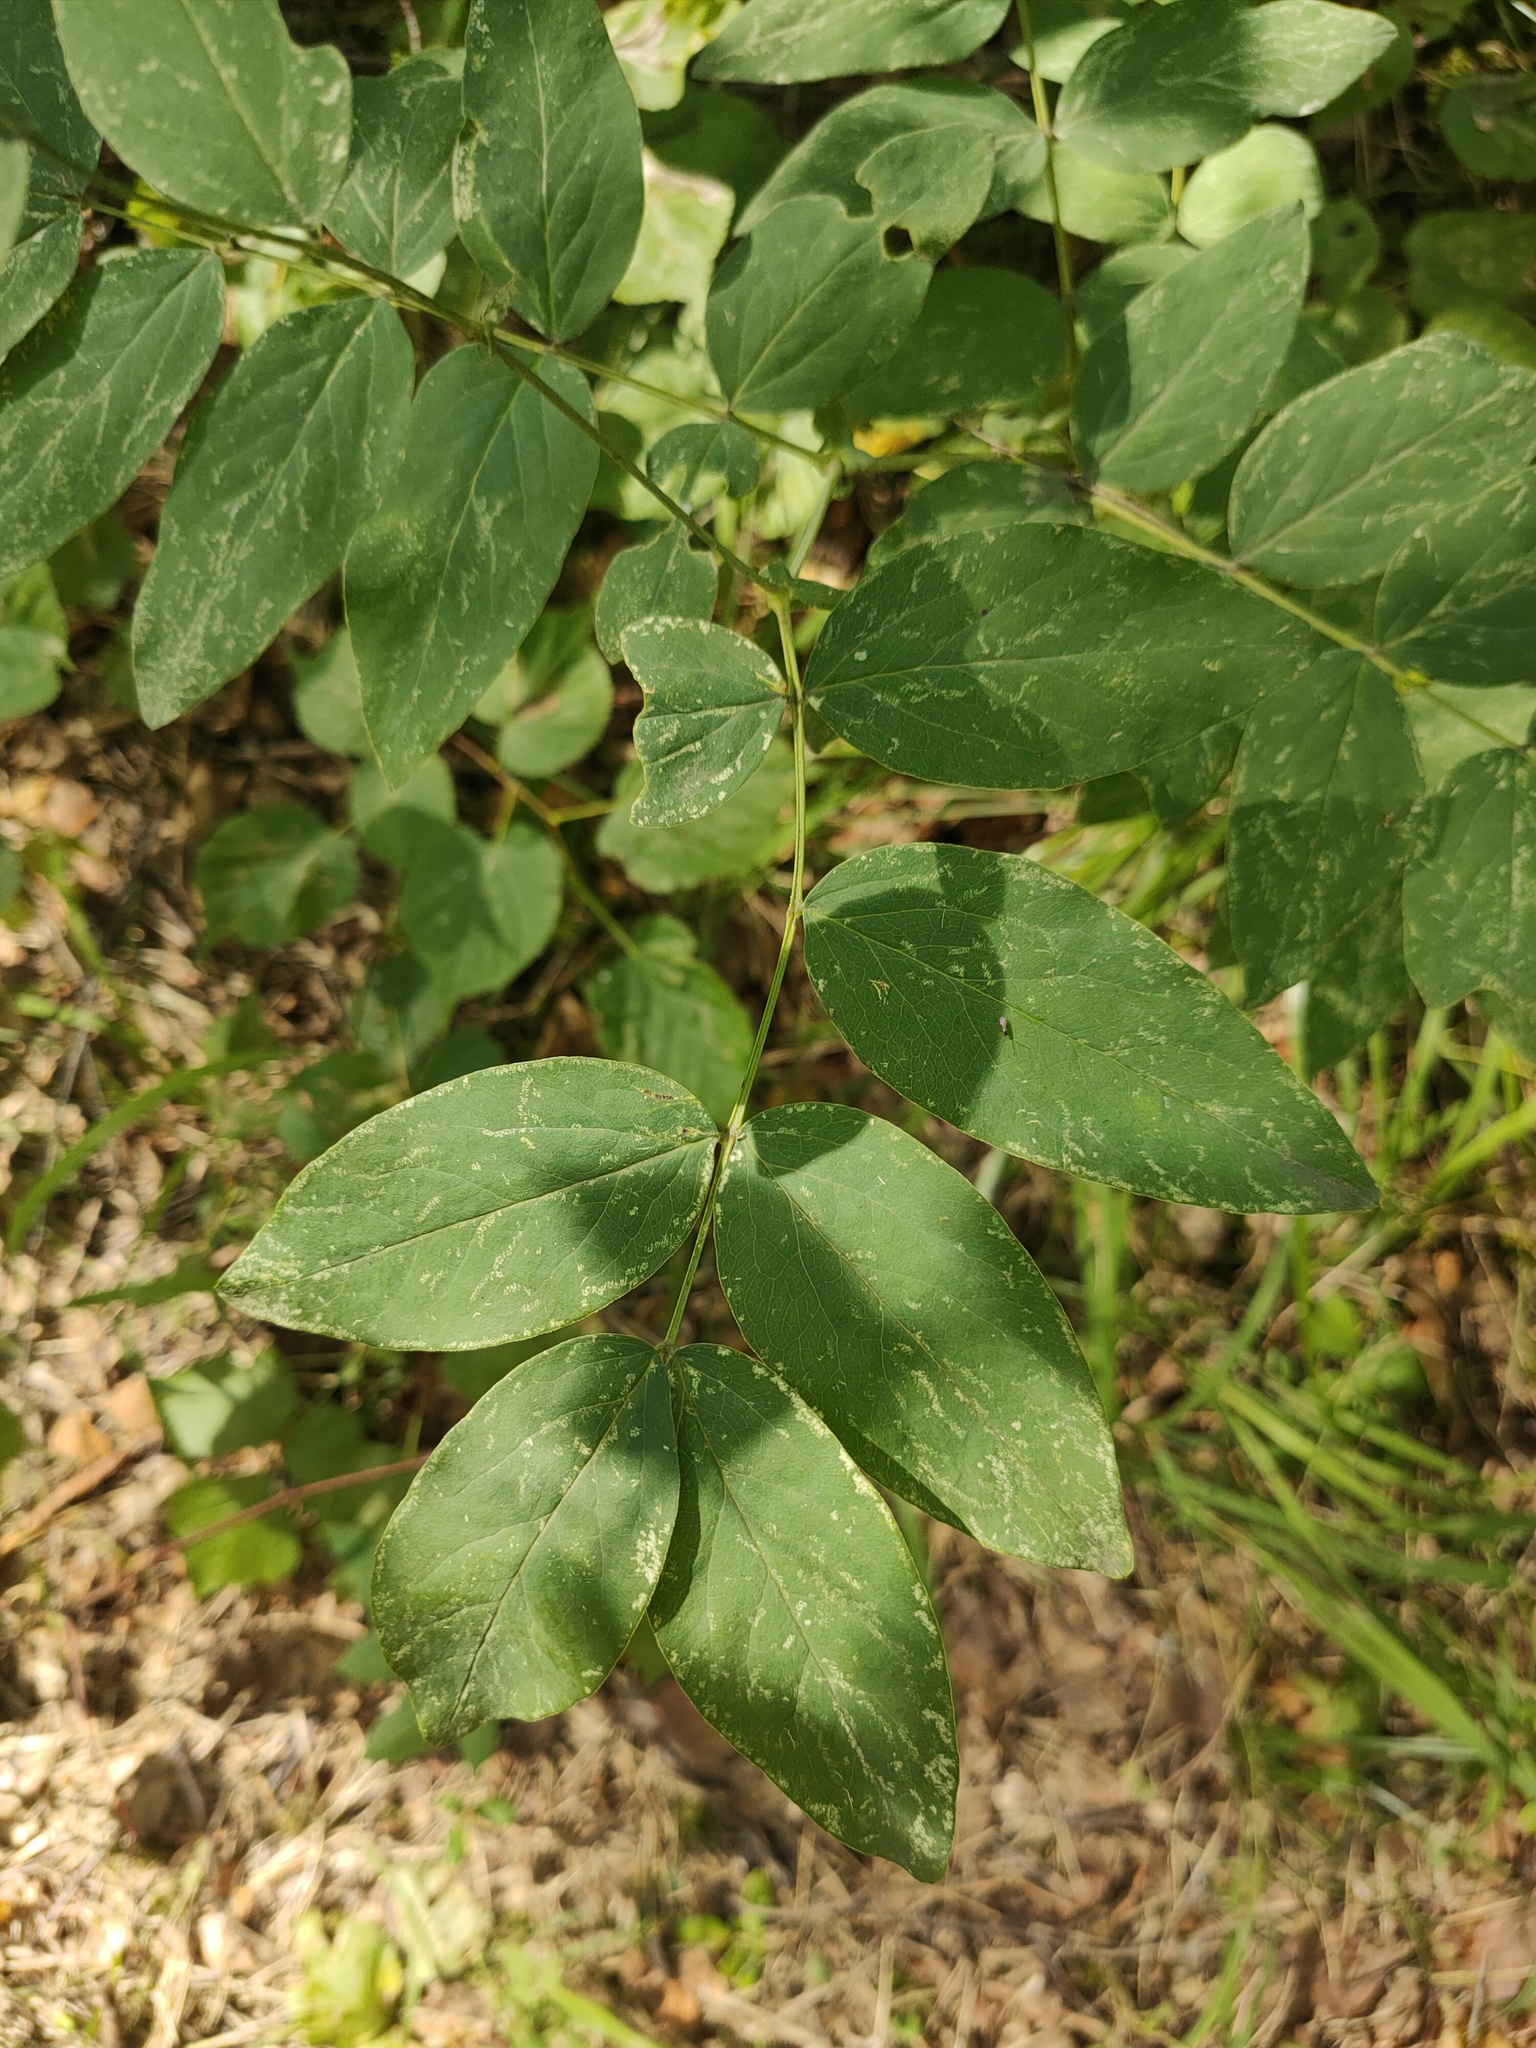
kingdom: Plantae
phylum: Tracheophyta
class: Magnoliopsida
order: Fabales
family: Fabaceae
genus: Lathyrus
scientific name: Lathyrus gmelinii
